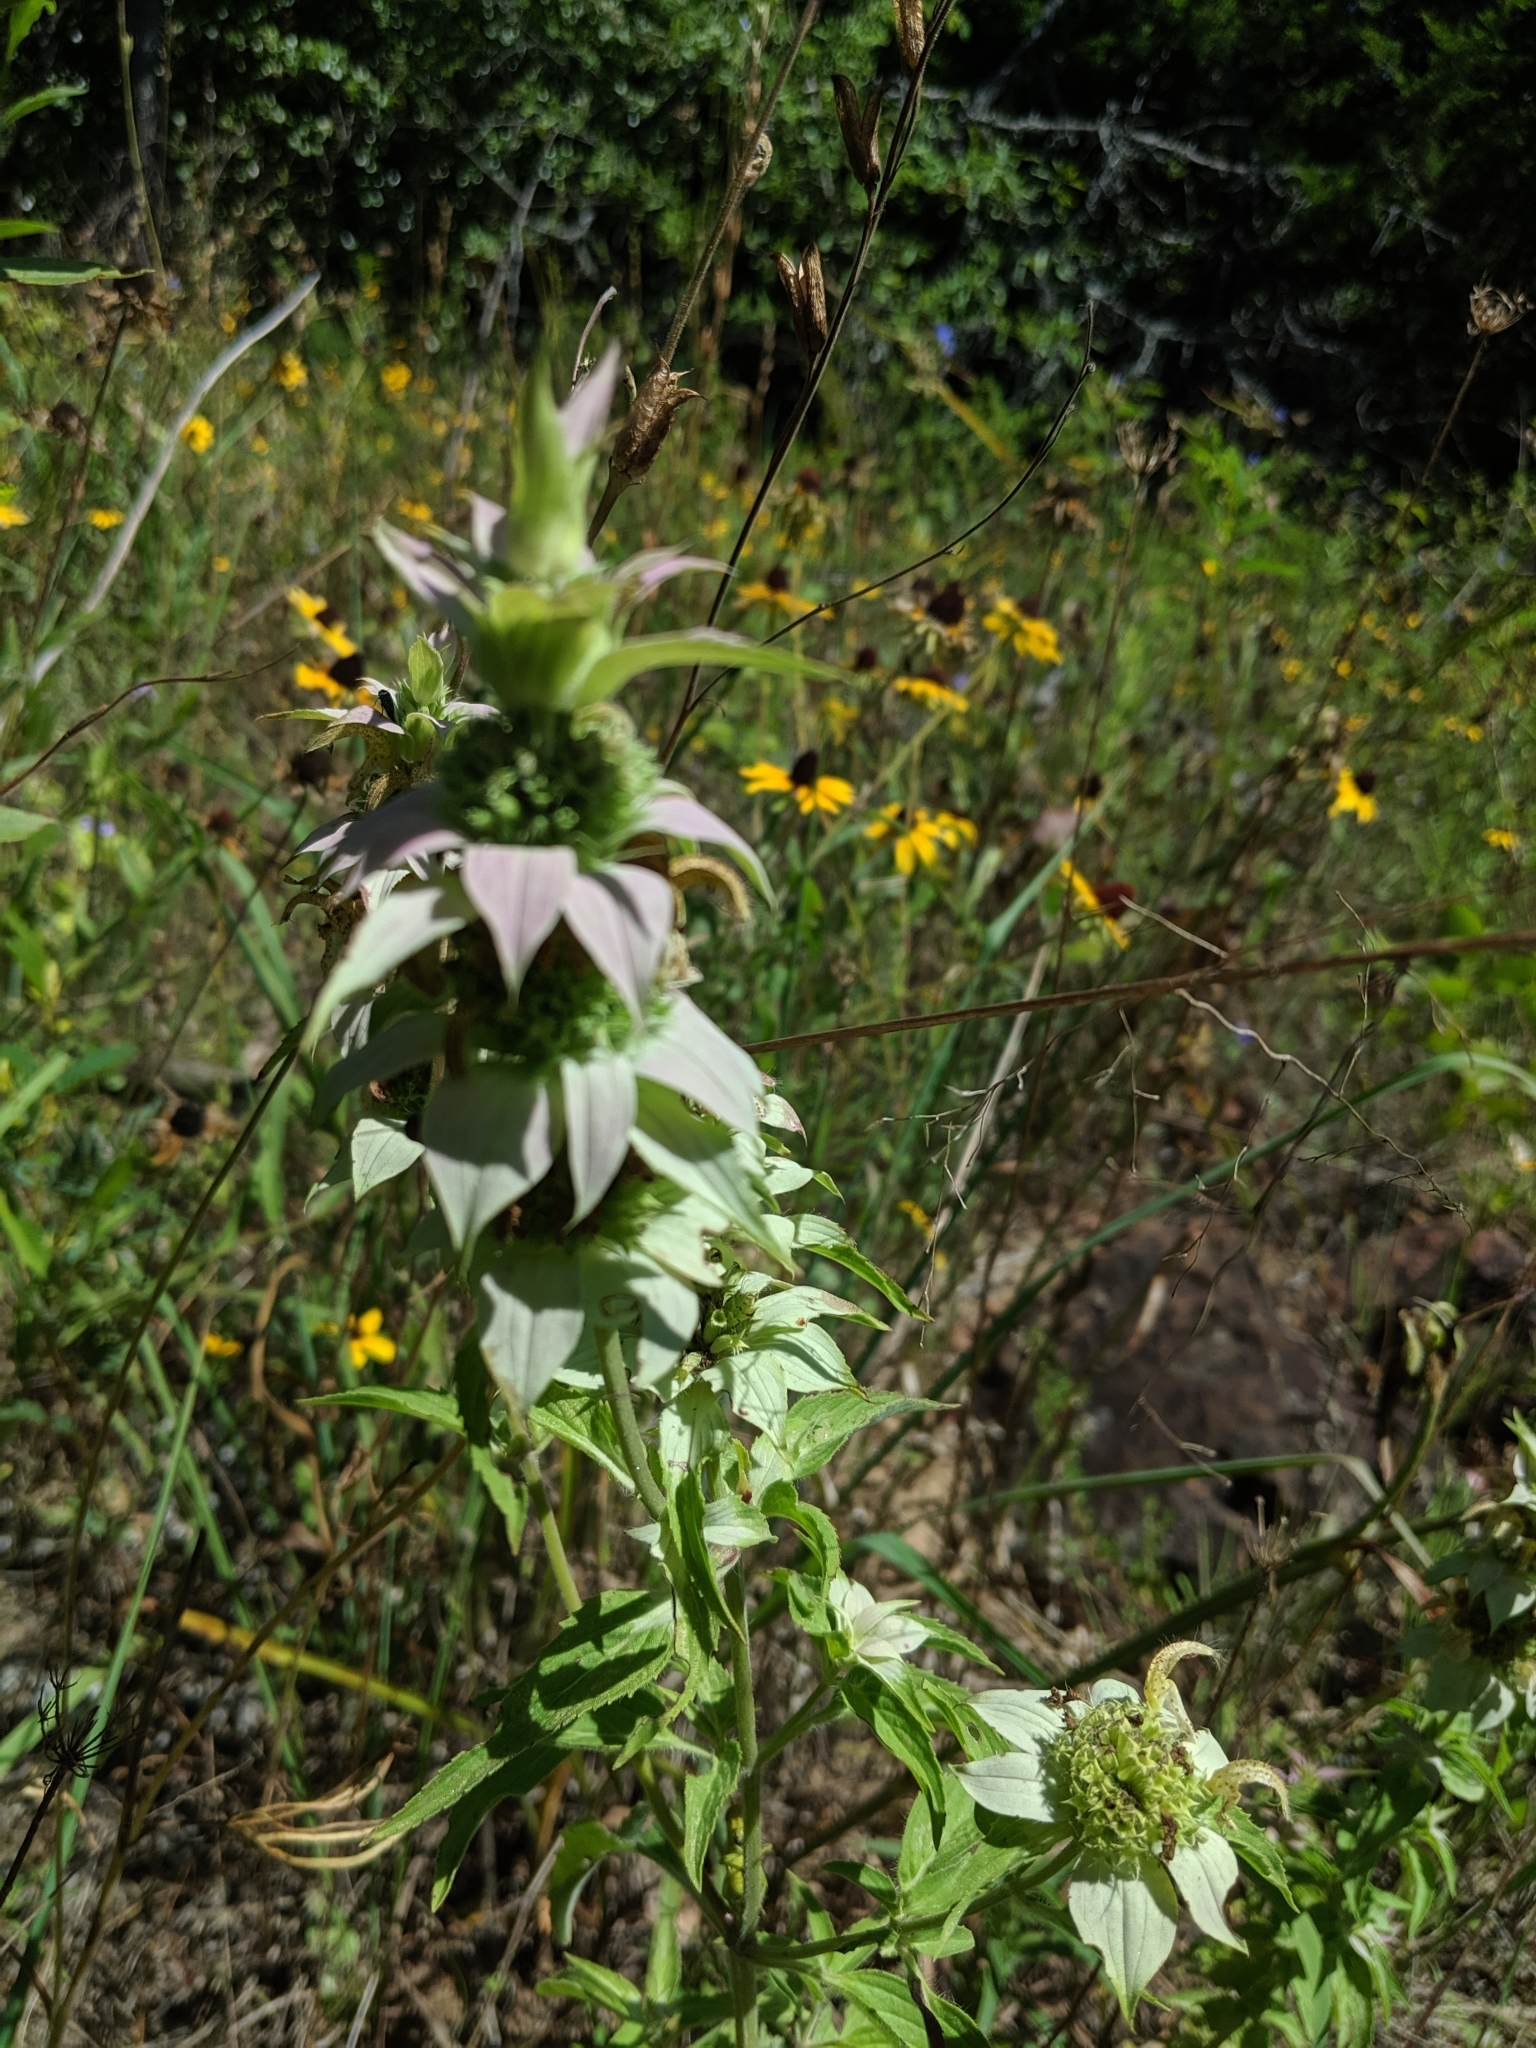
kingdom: Plantae
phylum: Tracheophyta
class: Magnoliopsida
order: Lamiales
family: Lamiaceae
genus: Monarda
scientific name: Monarda punctata
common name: Dotted monarda
